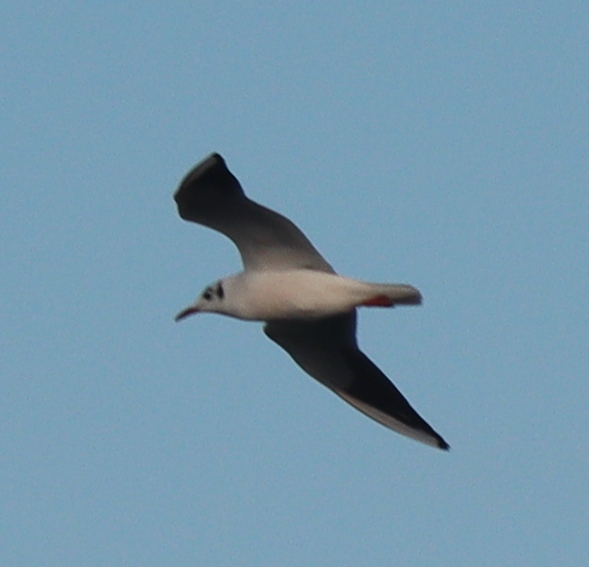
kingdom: Animalia
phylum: Chordata
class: Aves
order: Charadriiformes
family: Laridae
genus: Chroicocephalus
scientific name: Chroicocephalus ridibundus
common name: Black-headed gull
